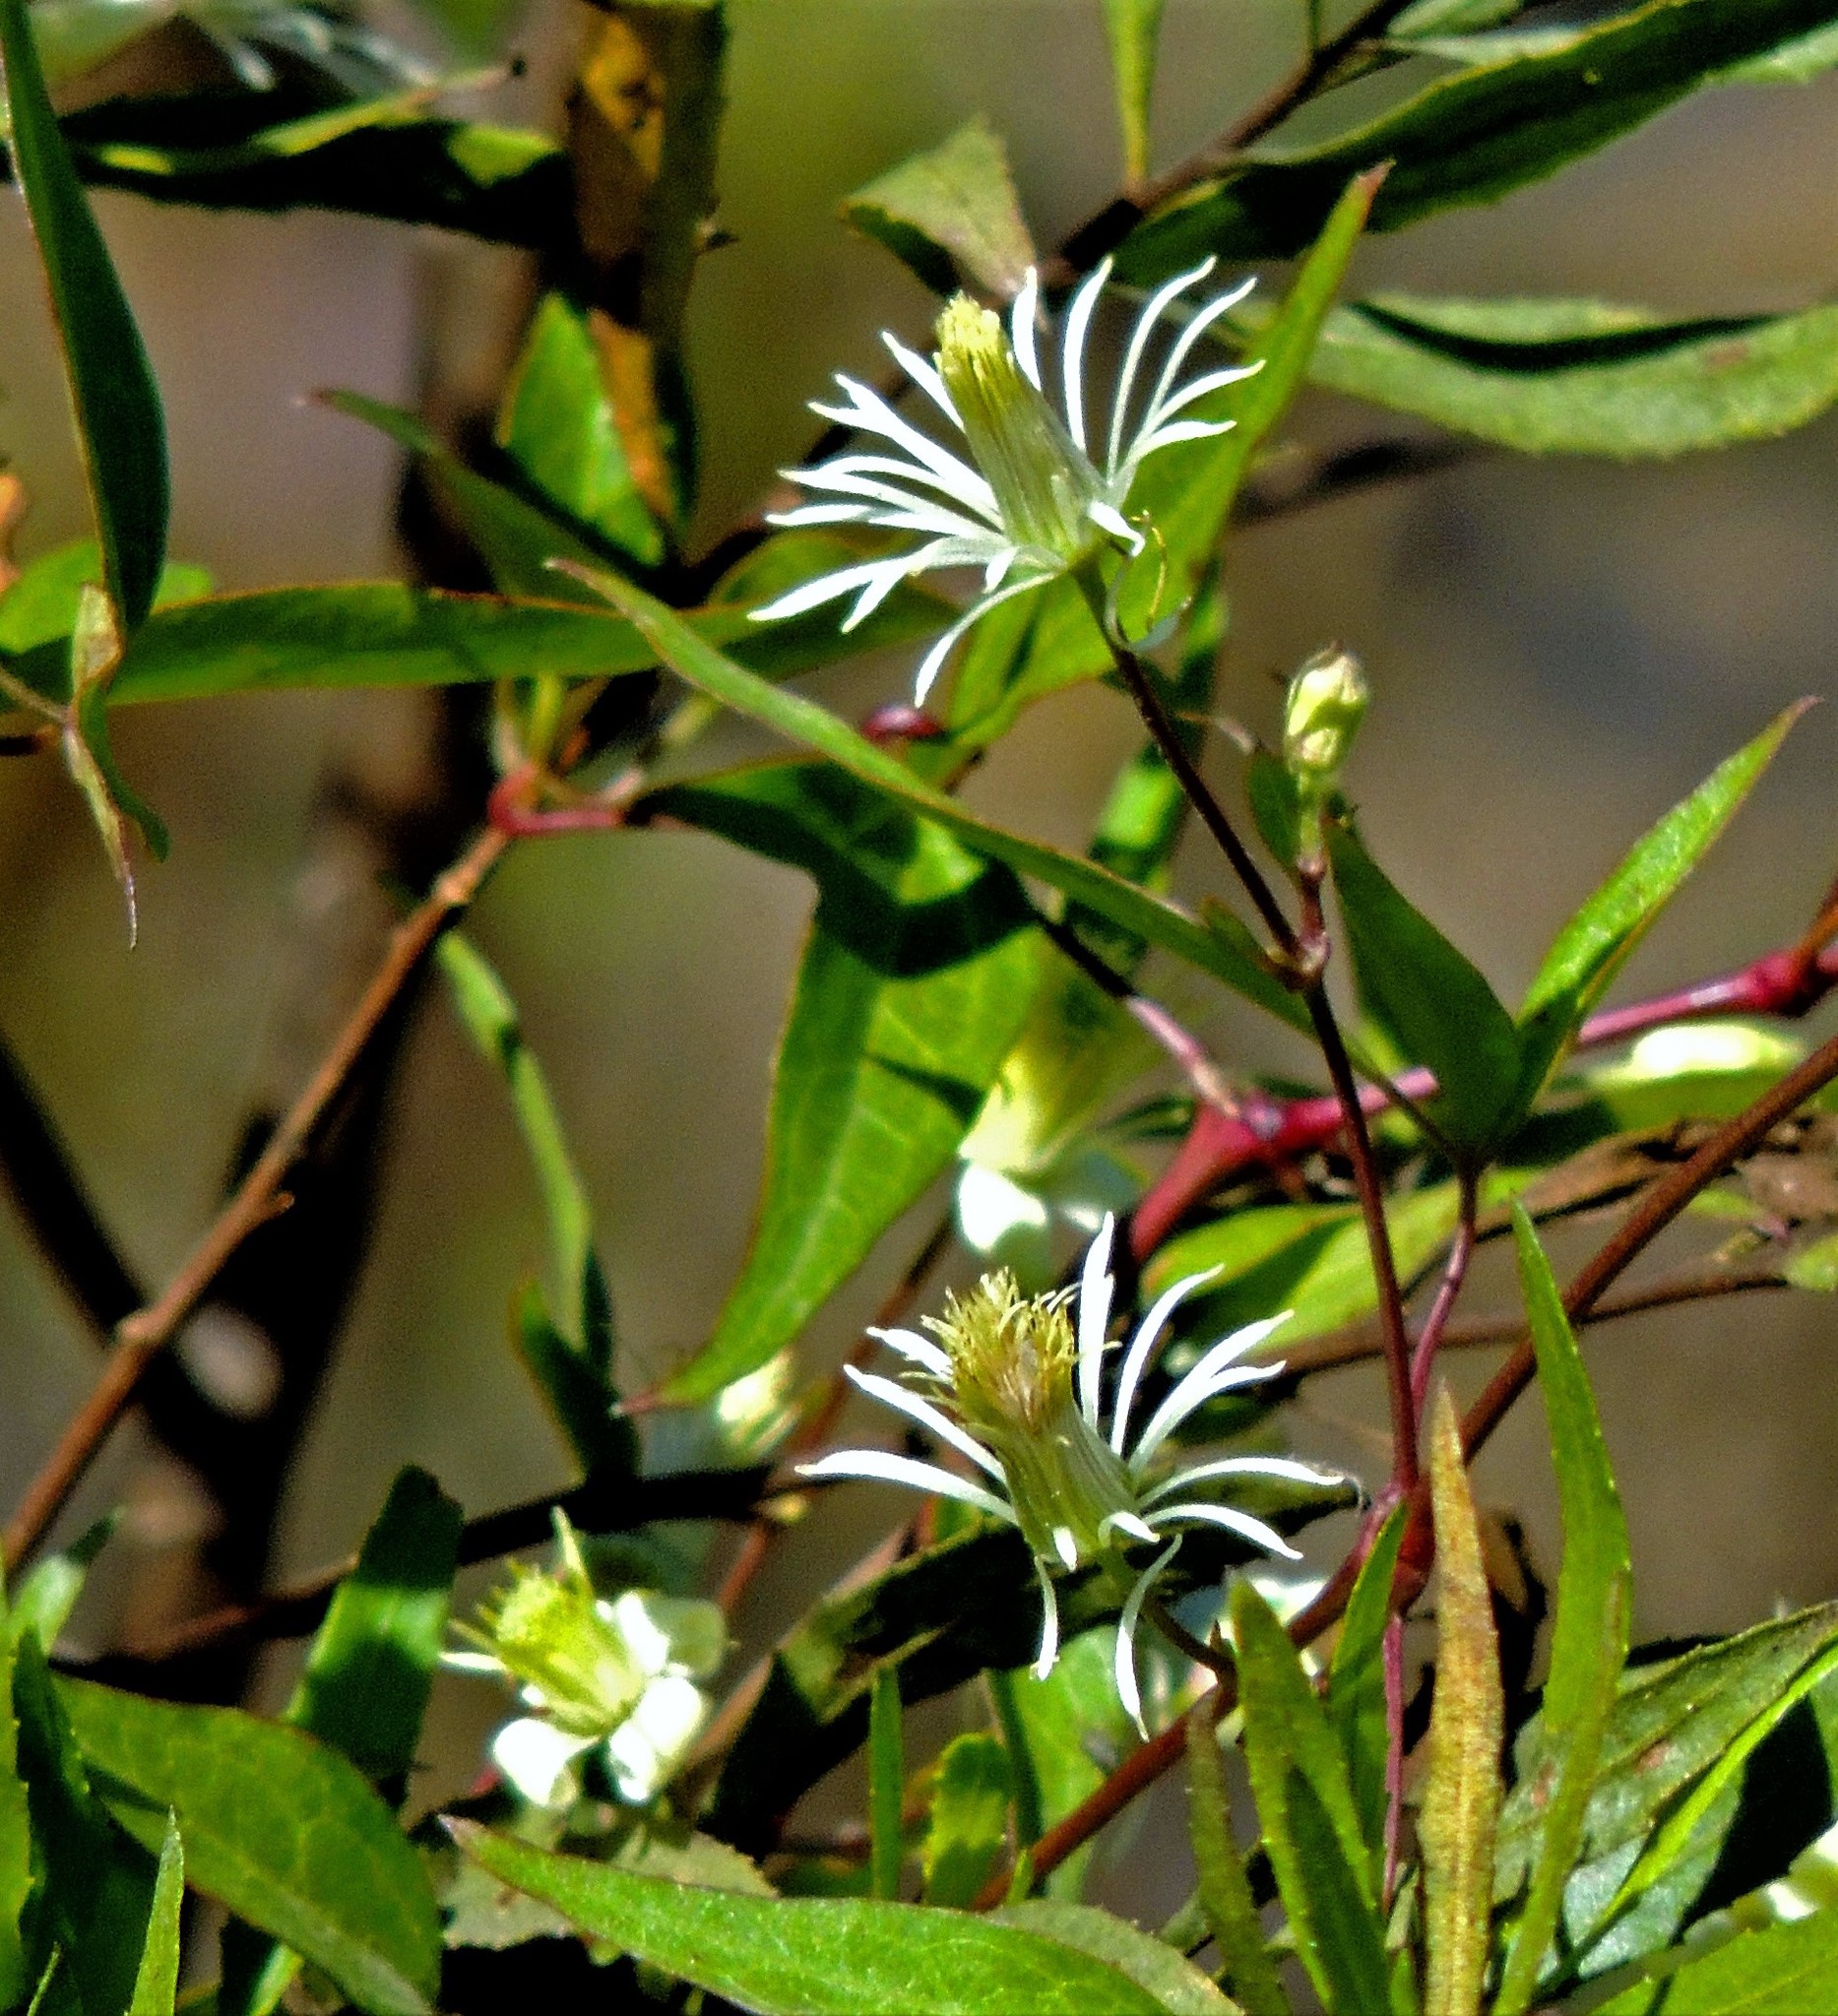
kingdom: Plantae
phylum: Tracheophyta
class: Magnoliopsida
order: Ranunculales
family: Ranunculaceae
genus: Clematis
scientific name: Clematis montevidensis
